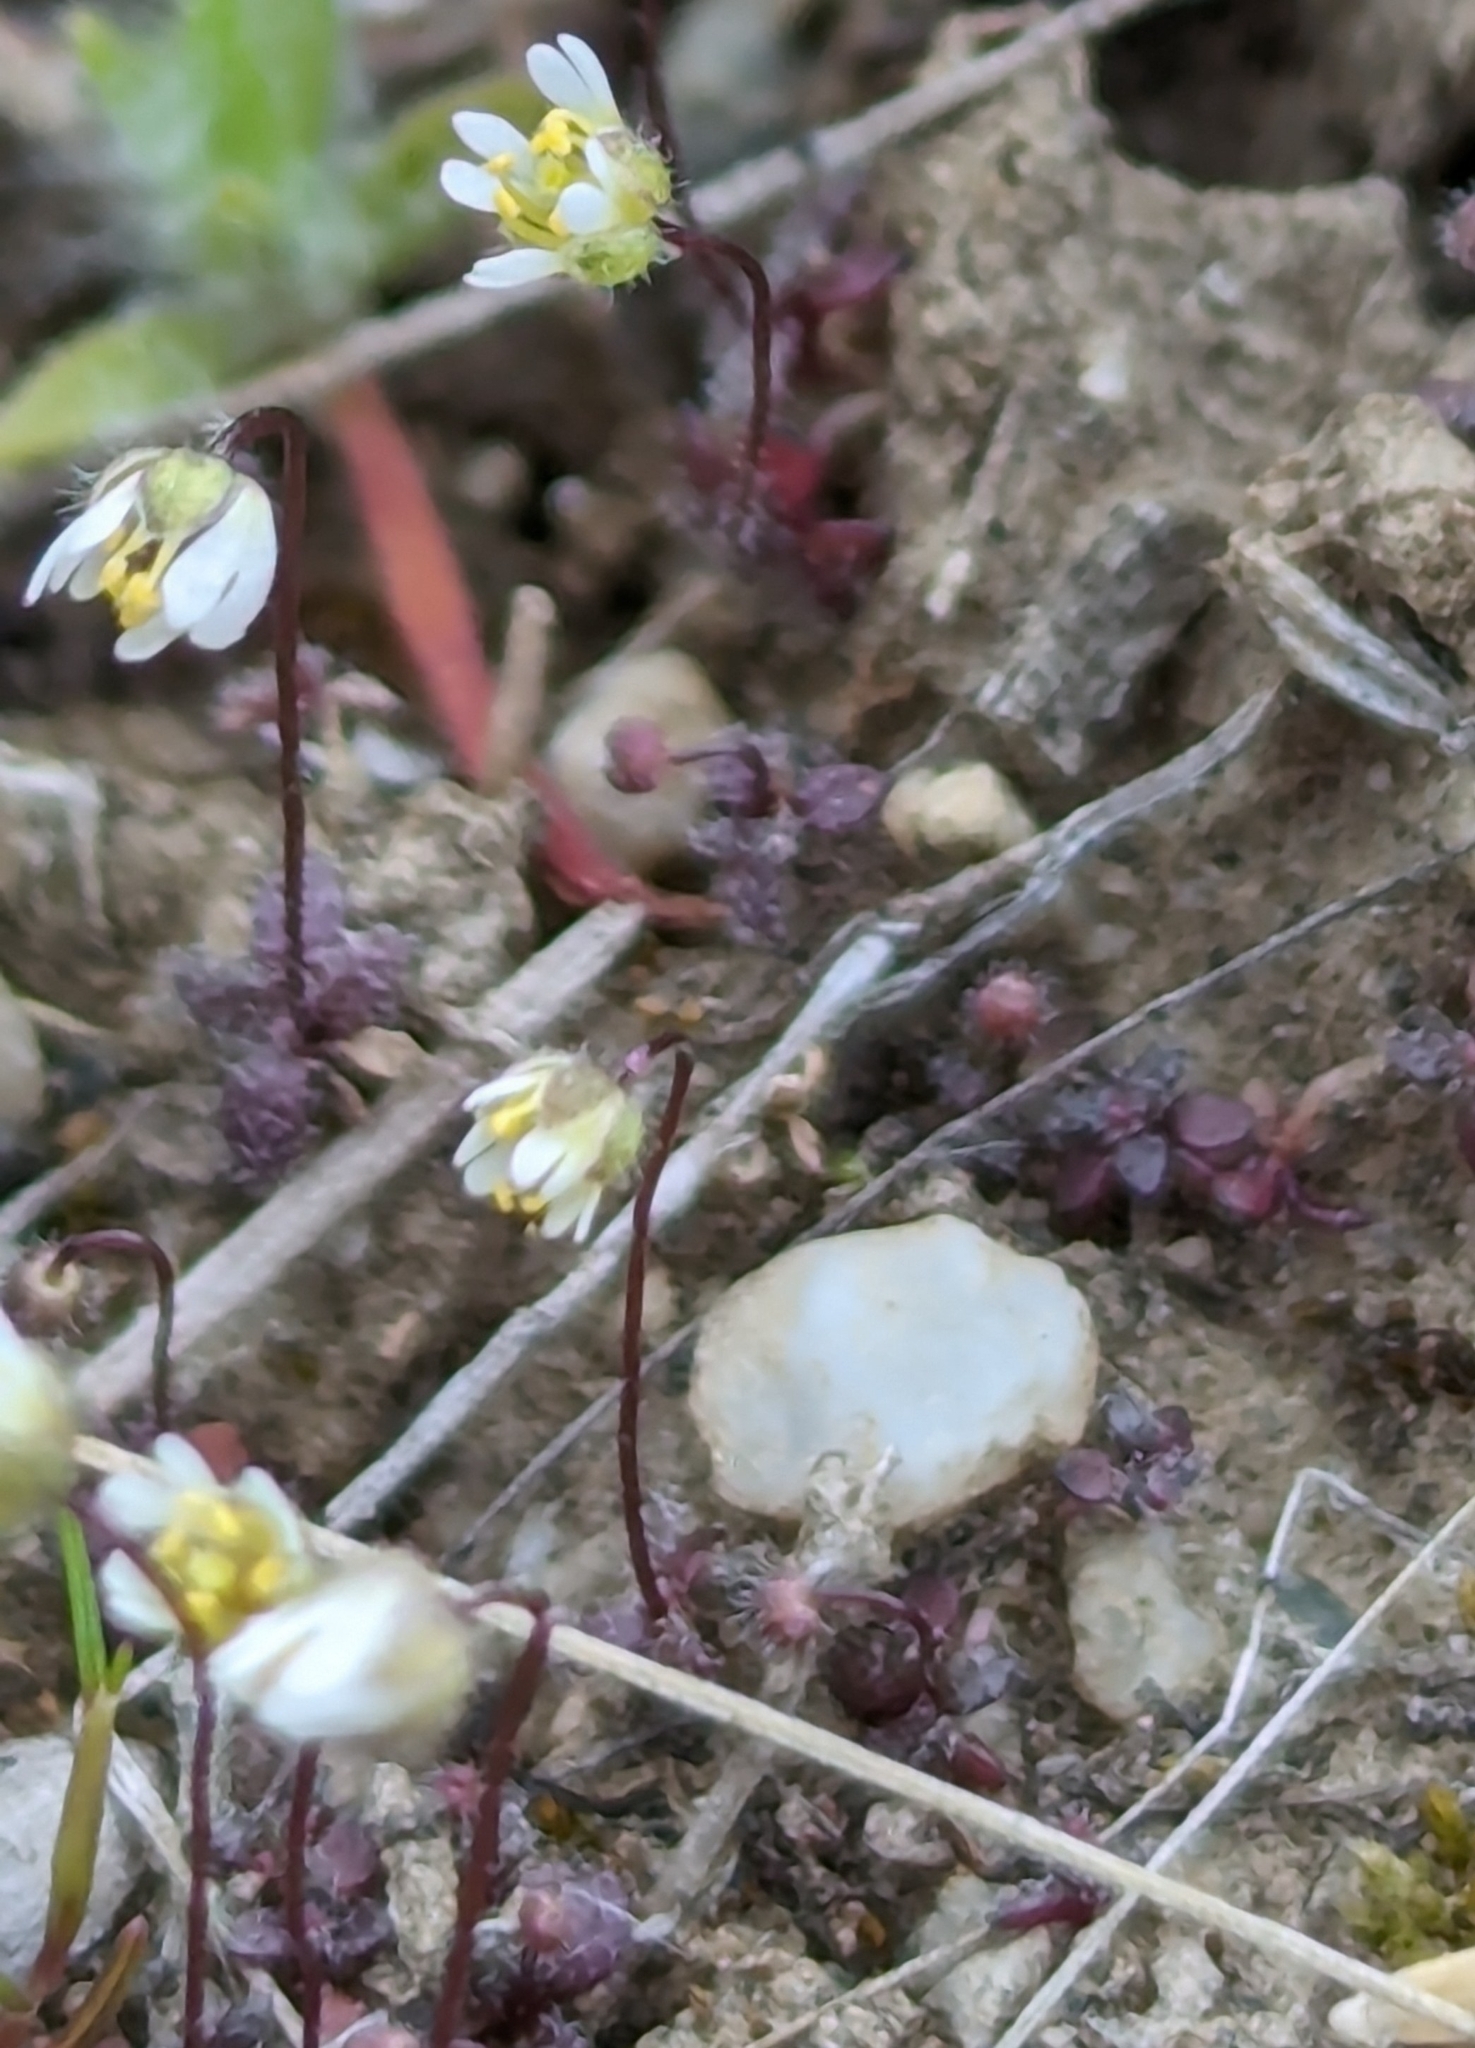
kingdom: Plantae
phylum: Tracheophyta
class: Magnoliopsida
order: Brassicales
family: Brassicaceae
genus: Draba
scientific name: Draba verna
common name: Spring draba
